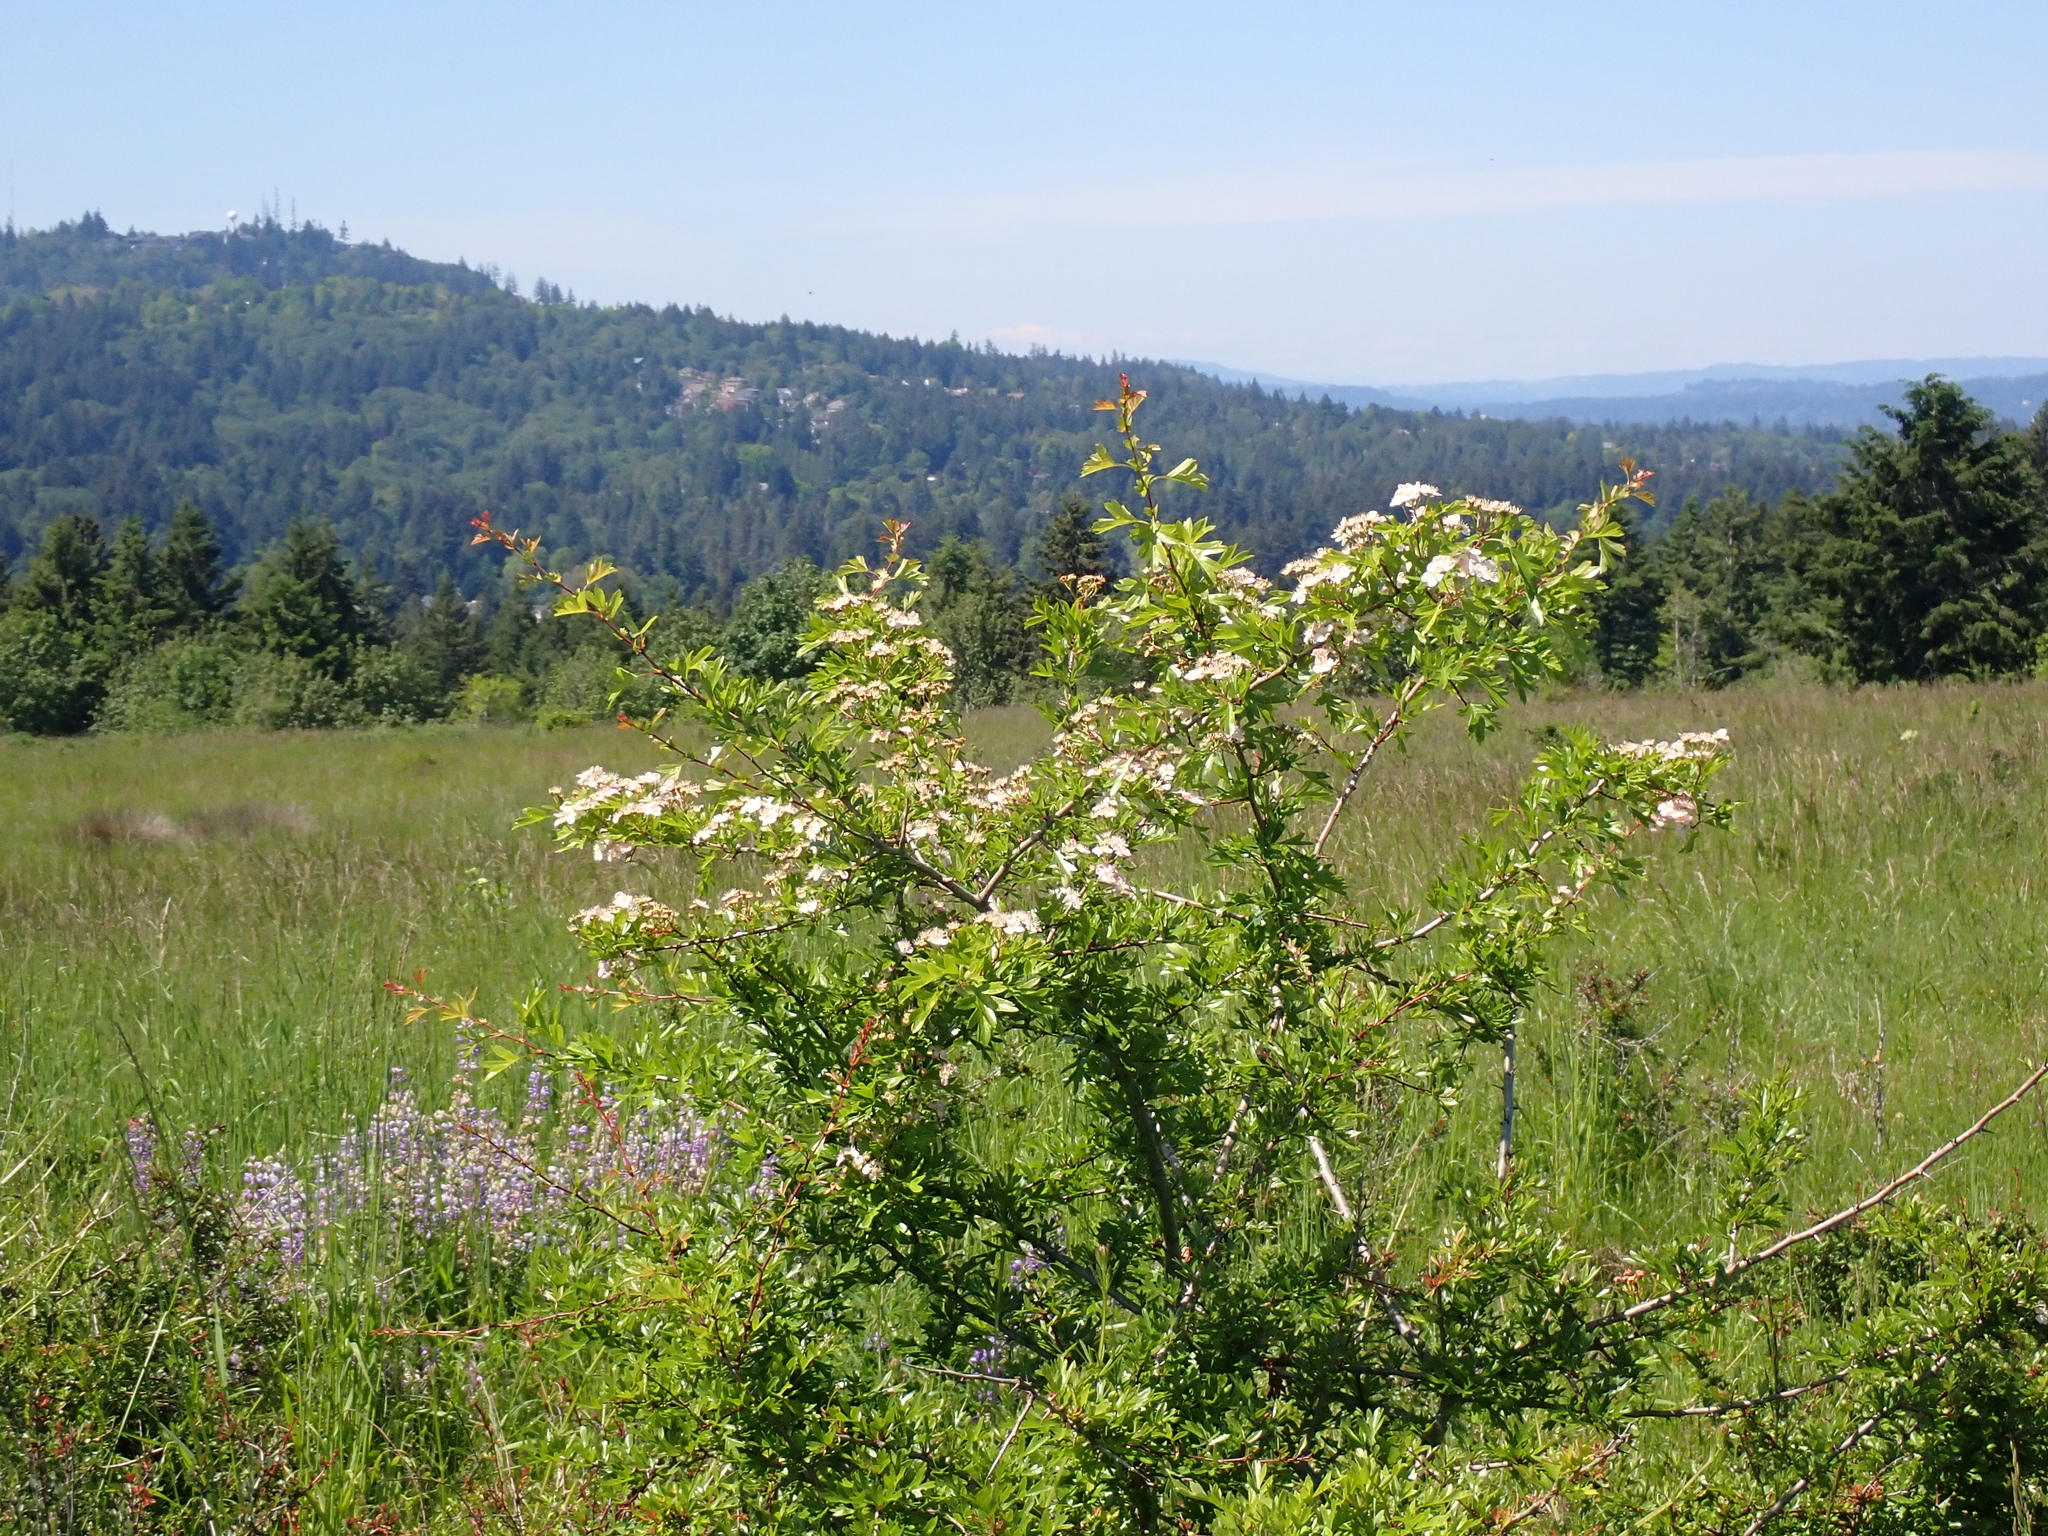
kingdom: Plantae
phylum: Tracheophyta
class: Magnoliopsida
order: Rosales
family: Rosaceae
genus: Crataegus
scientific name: Crataegus monogyna
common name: Hawthorn
